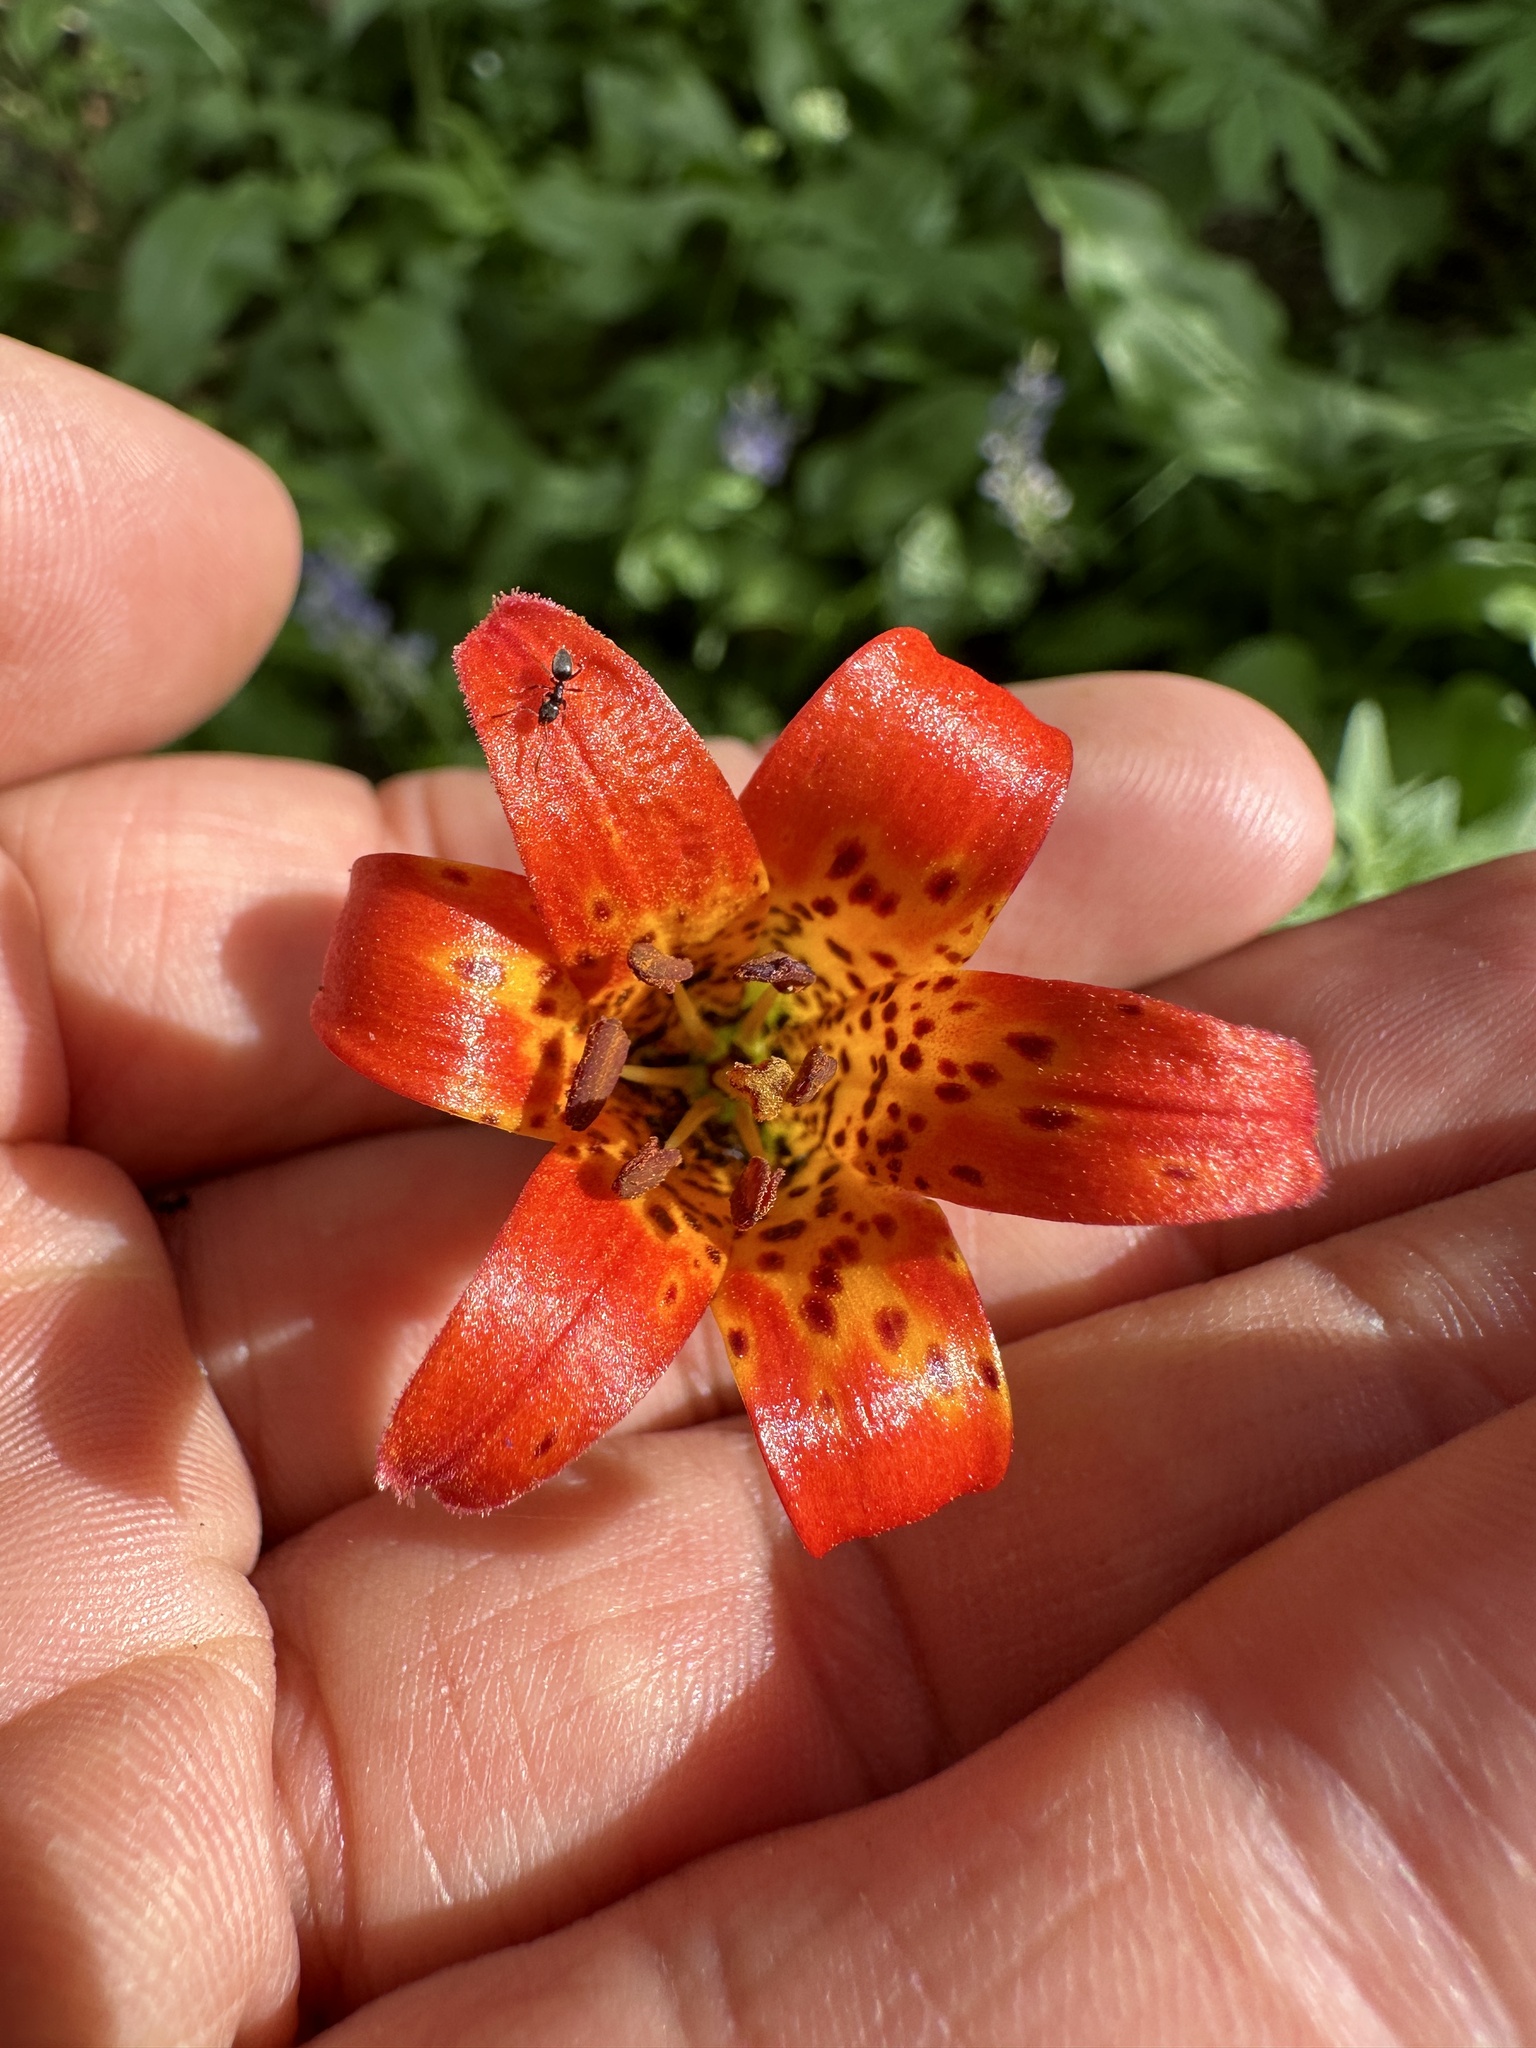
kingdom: Plantae
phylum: Tracheophyta
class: Liliopsida
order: Liliales
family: Liliaceae
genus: Lilium
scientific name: Lilium parvum
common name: Alpine lily
